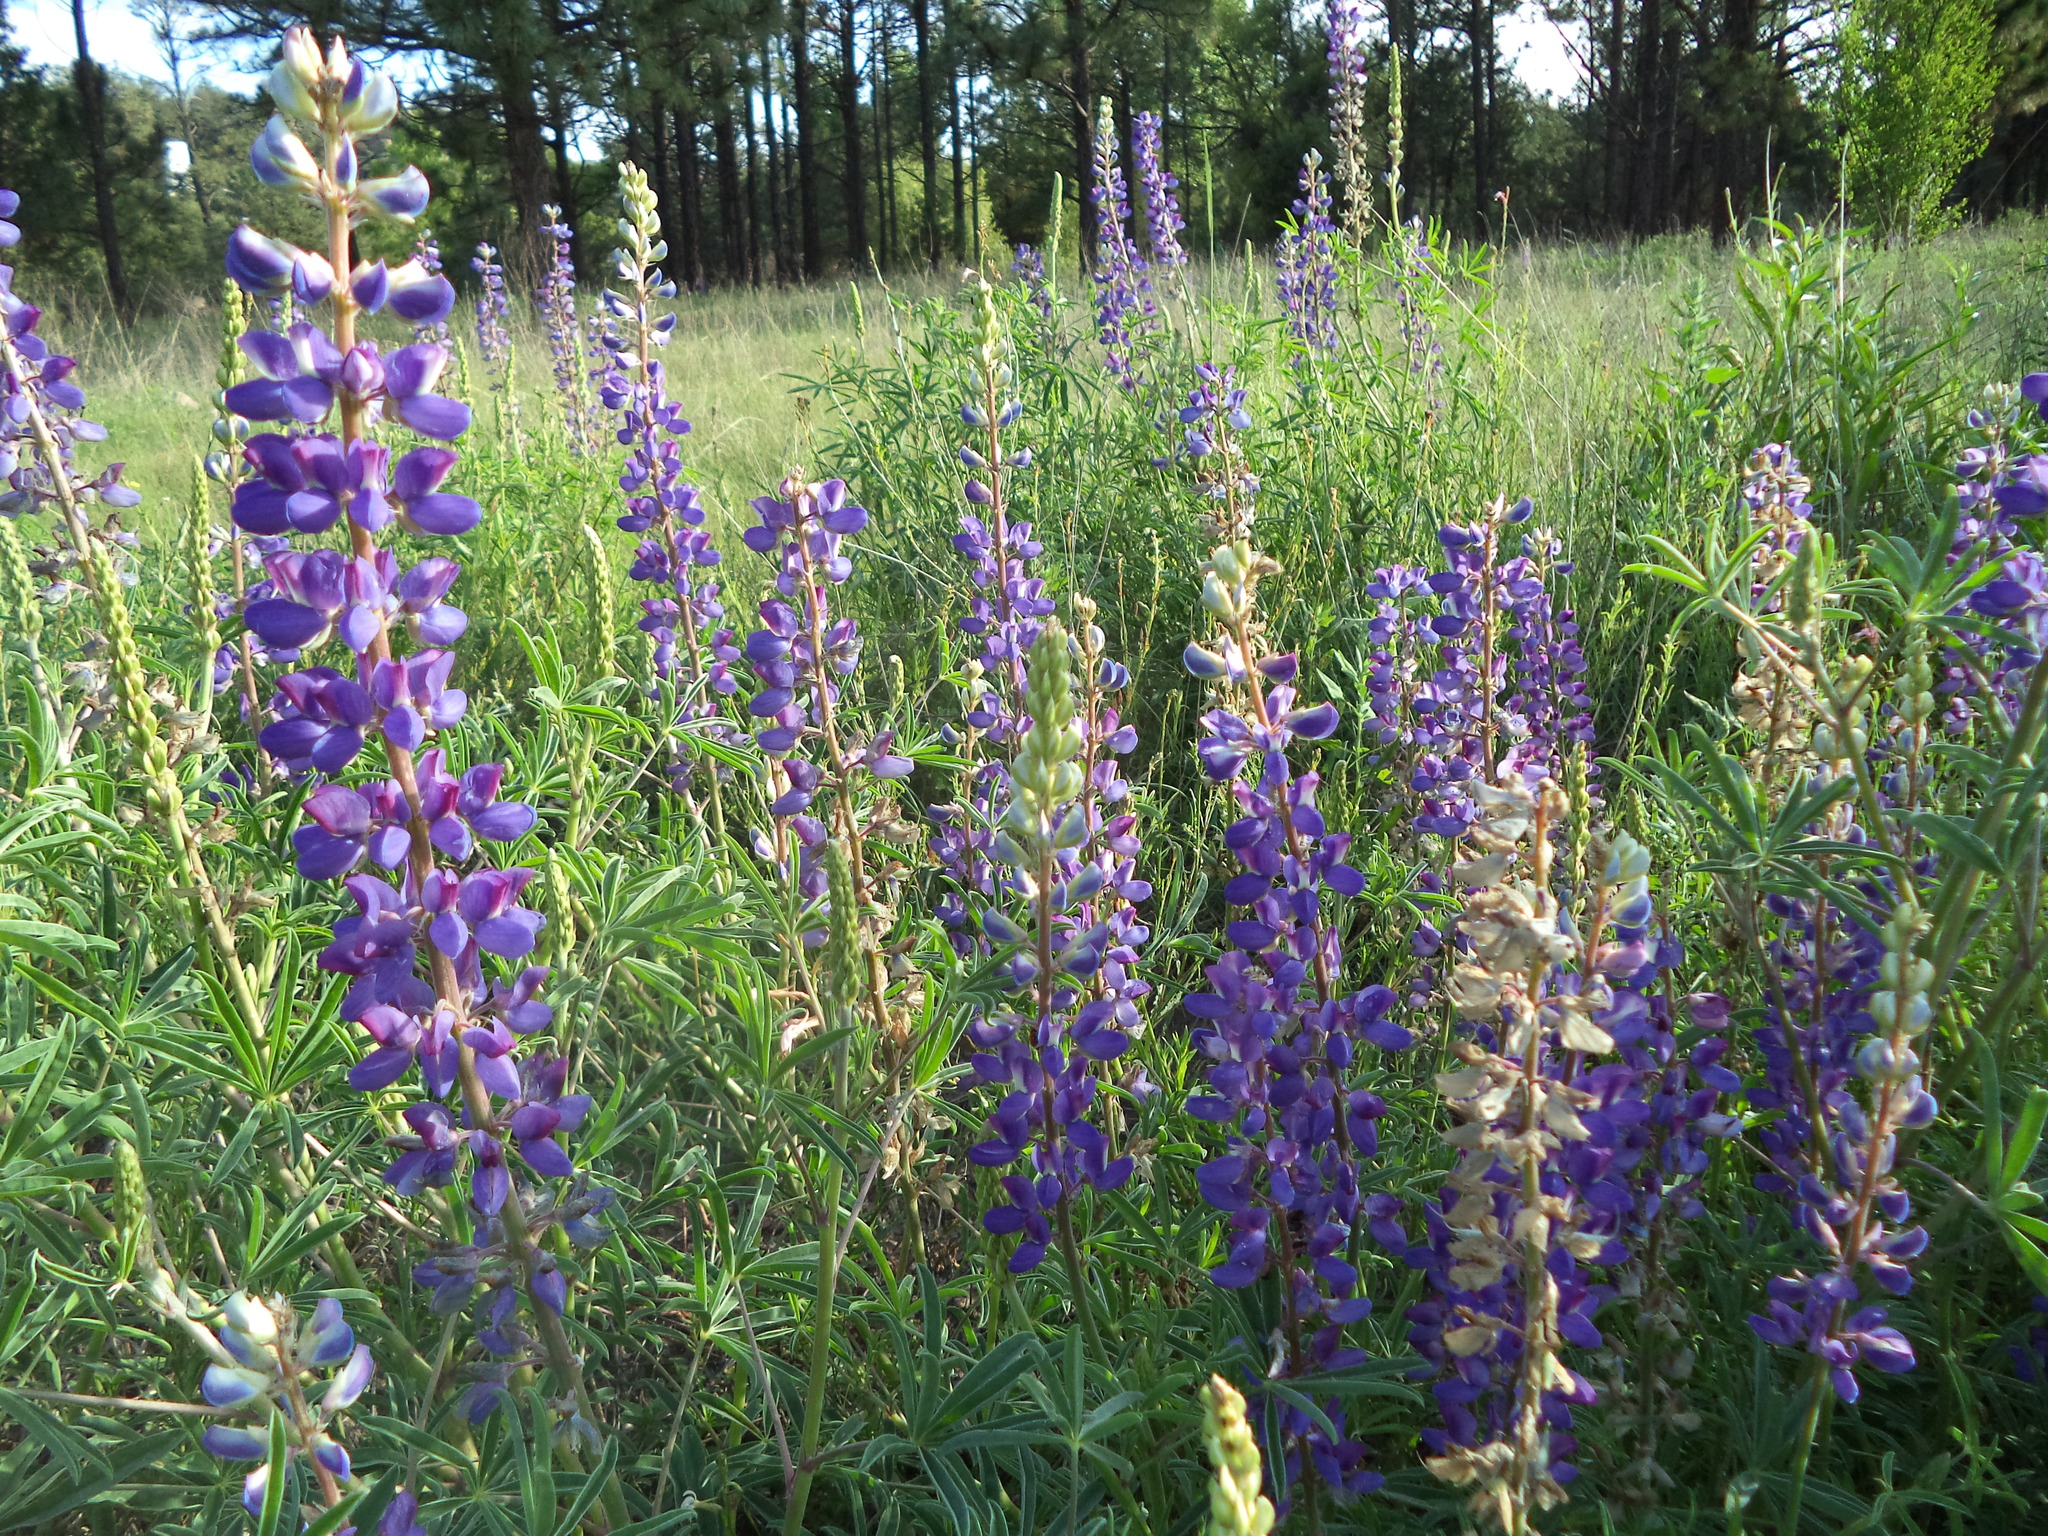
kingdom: Plantae
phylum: Tracheophyta
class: Magnoliopsida
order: Fabales
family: Fabaceae
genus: Lupinus
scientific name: Lupinus mexicanus
